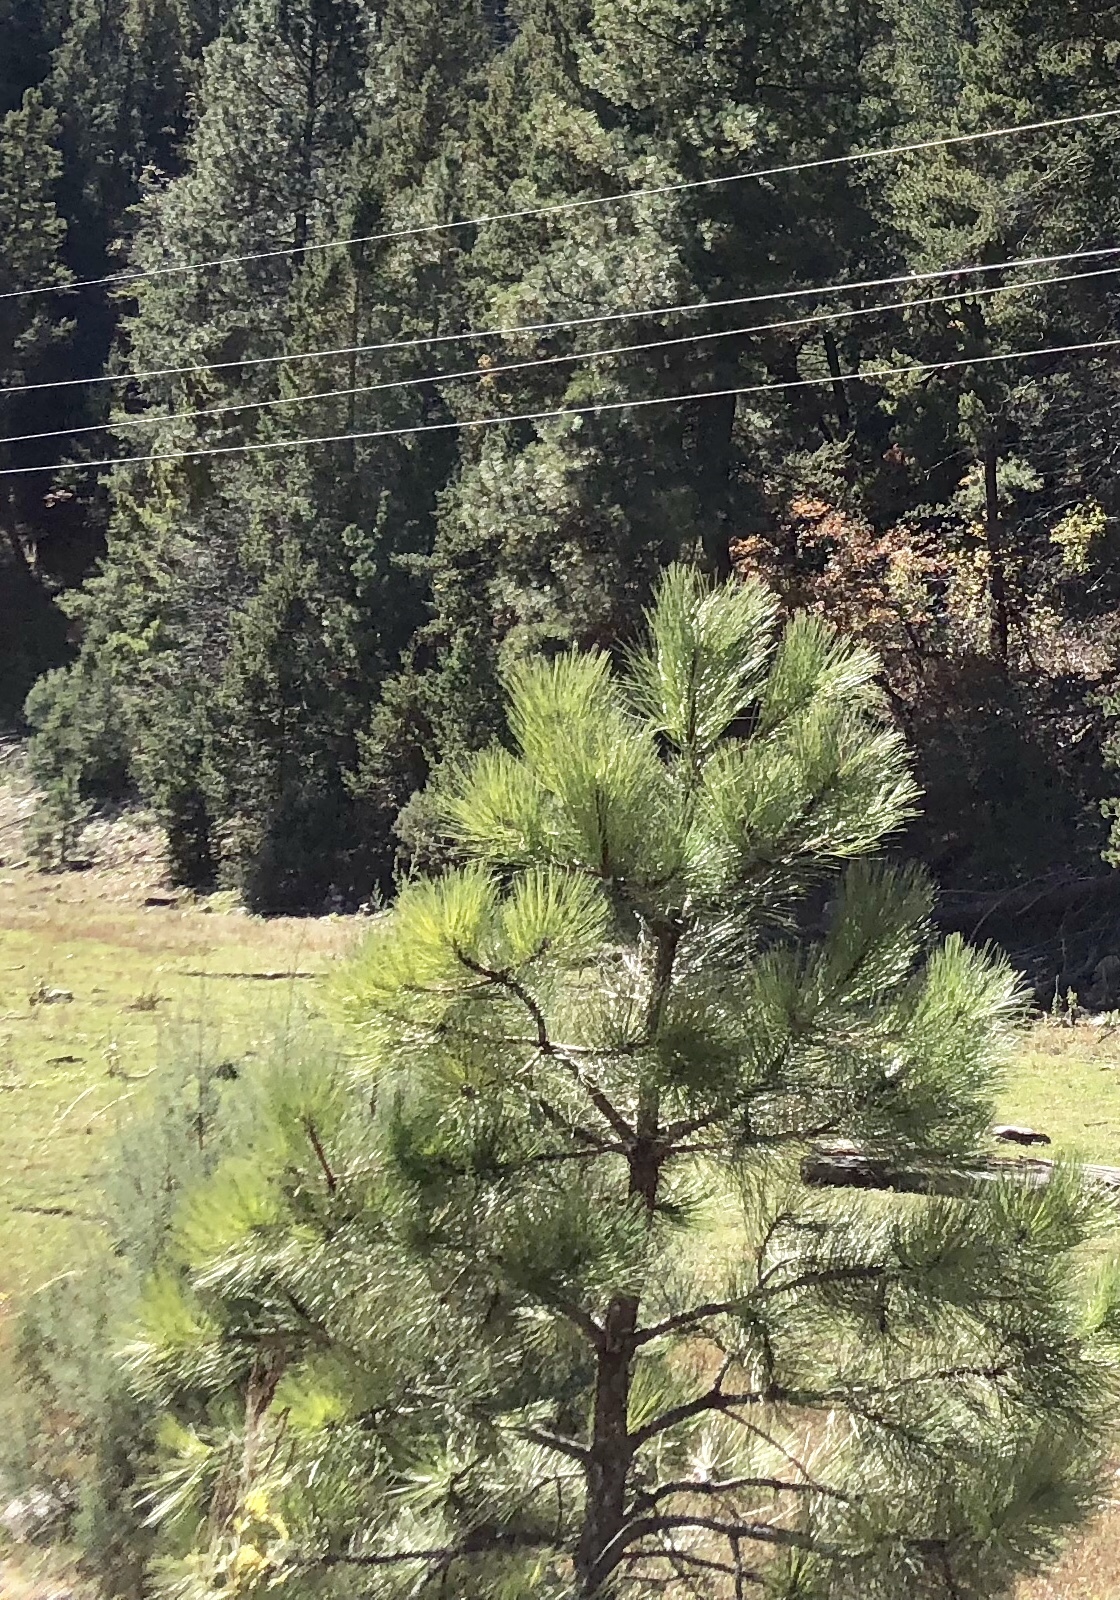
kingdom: Plantae
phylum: Tracheophyta
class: Pinopsida
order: Pinales
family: Pinaceae
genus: Pinus
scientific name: Pinus ponderosa
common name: Western yellow-pine
